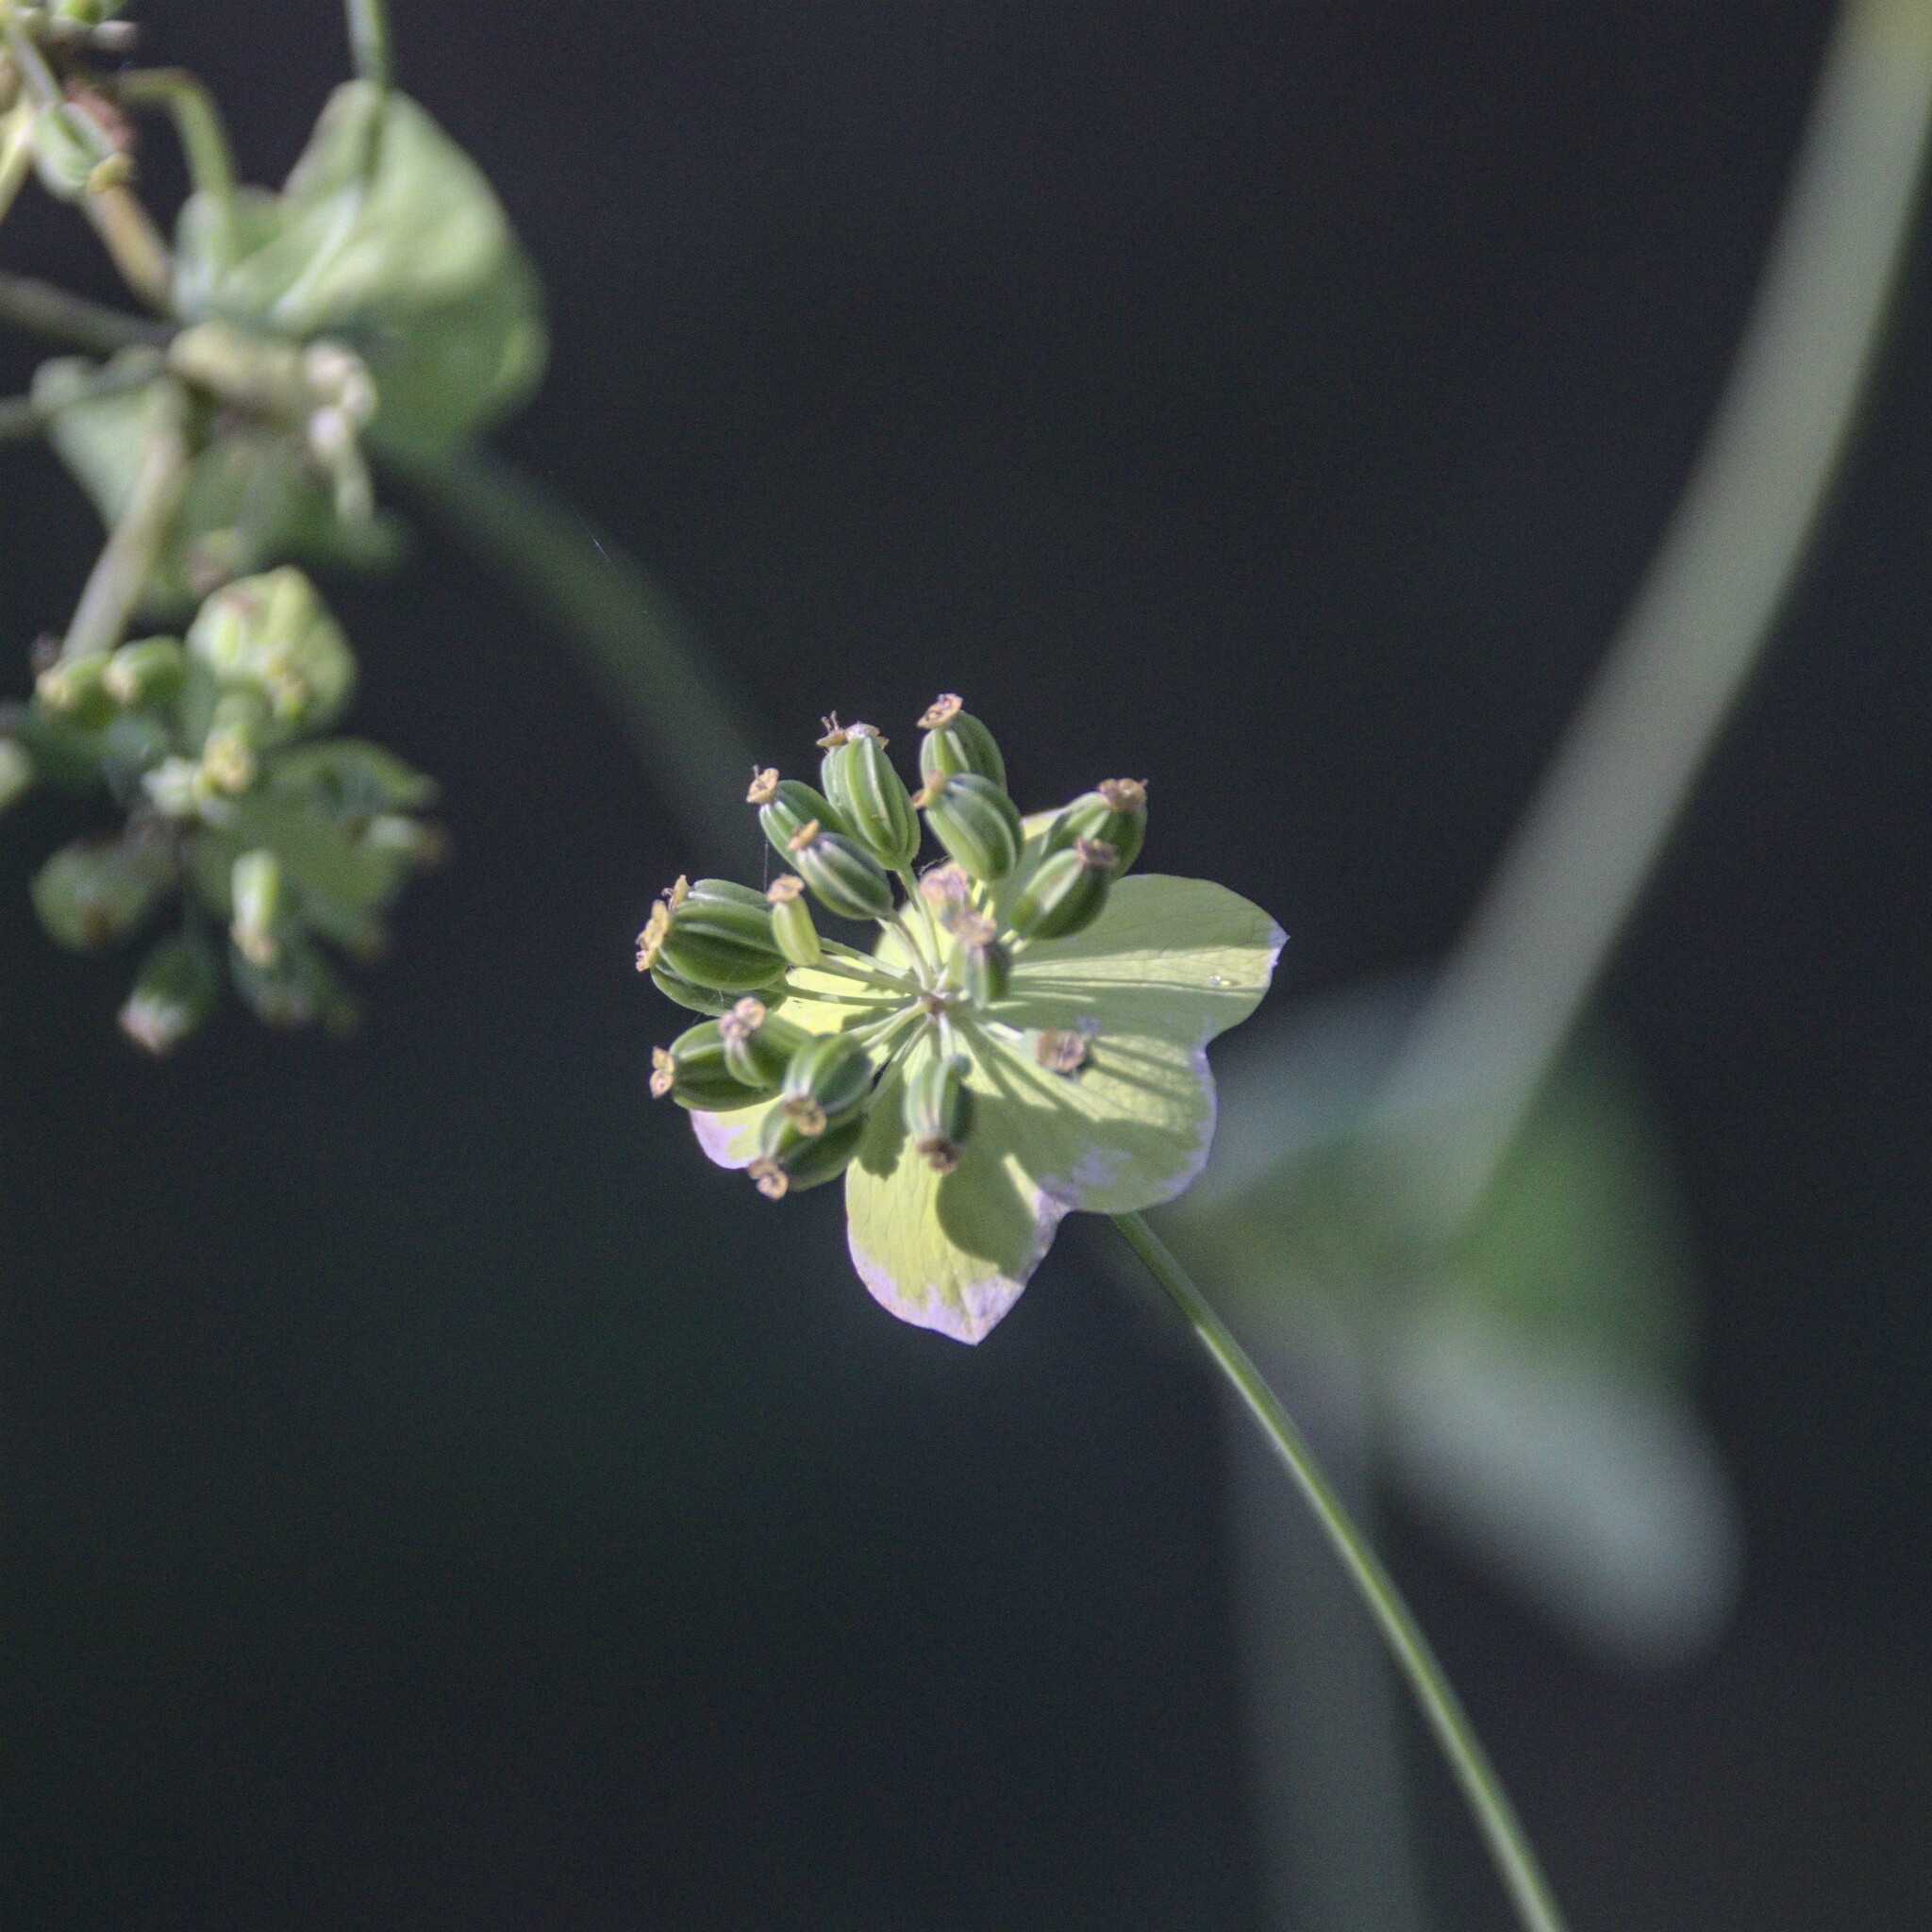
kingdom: Plantae
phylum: Tracheophyta
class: Magnoliopsida
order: Apiales
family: Apiaceae
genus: Bupleurum
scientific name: Bupleurum aureum
